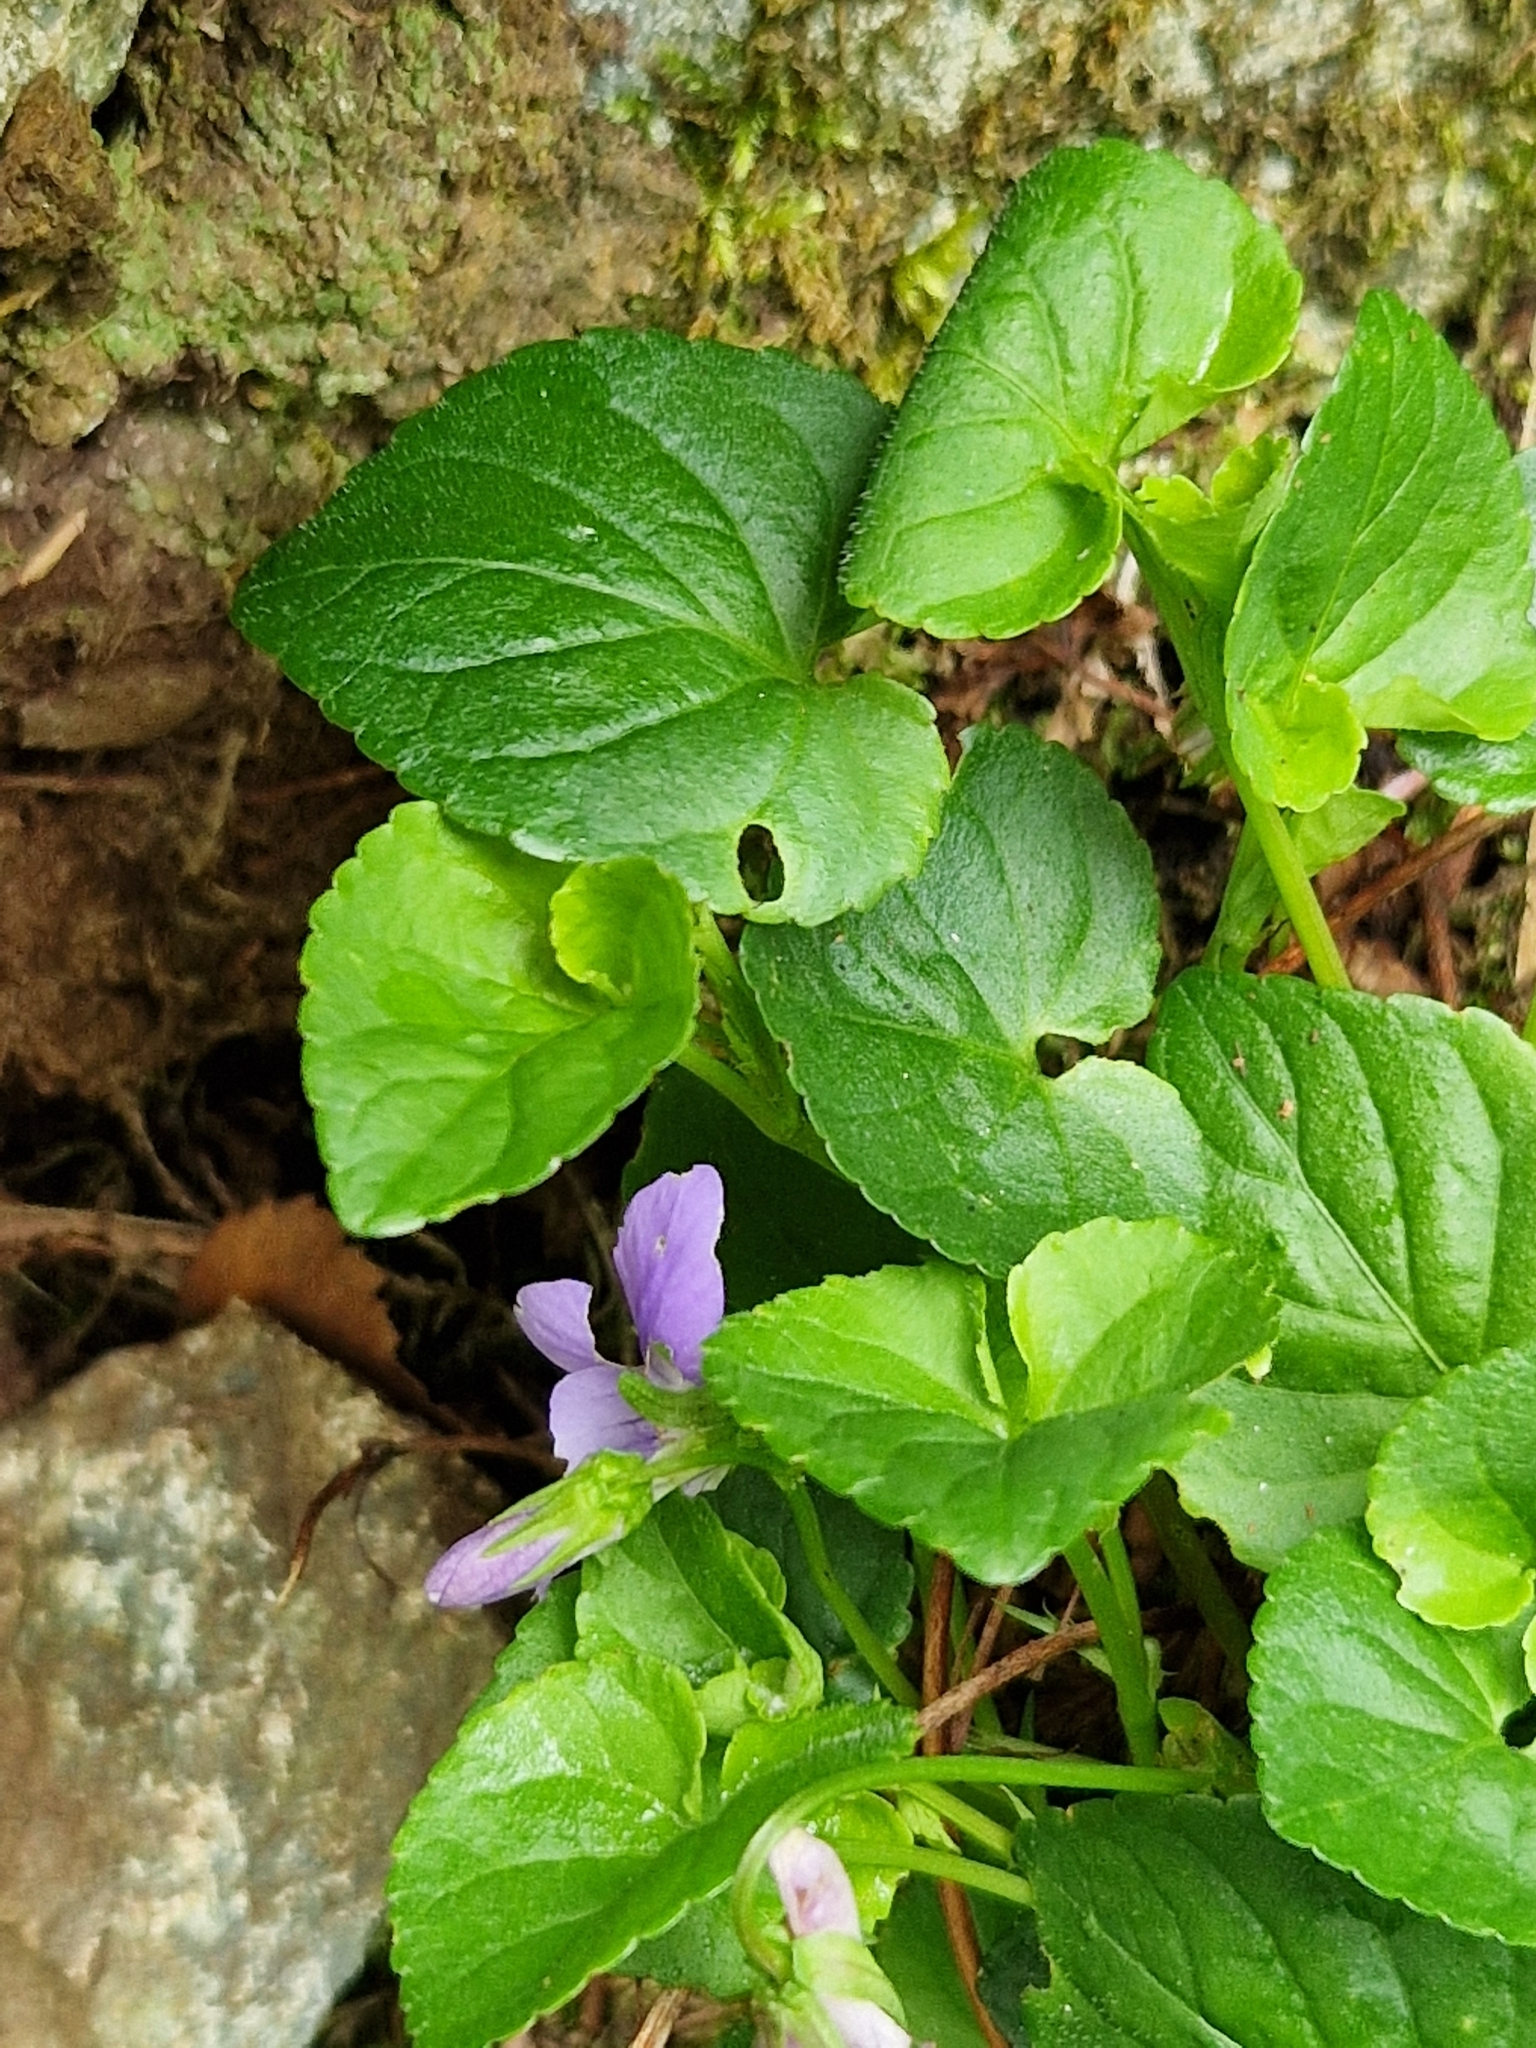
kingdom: Plantae
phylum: Tracheophyta
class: Magnoliopsida
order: Malpighiales
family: Violaceae
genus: Viola
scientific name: Viola riviniana
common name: Common dog-violet
